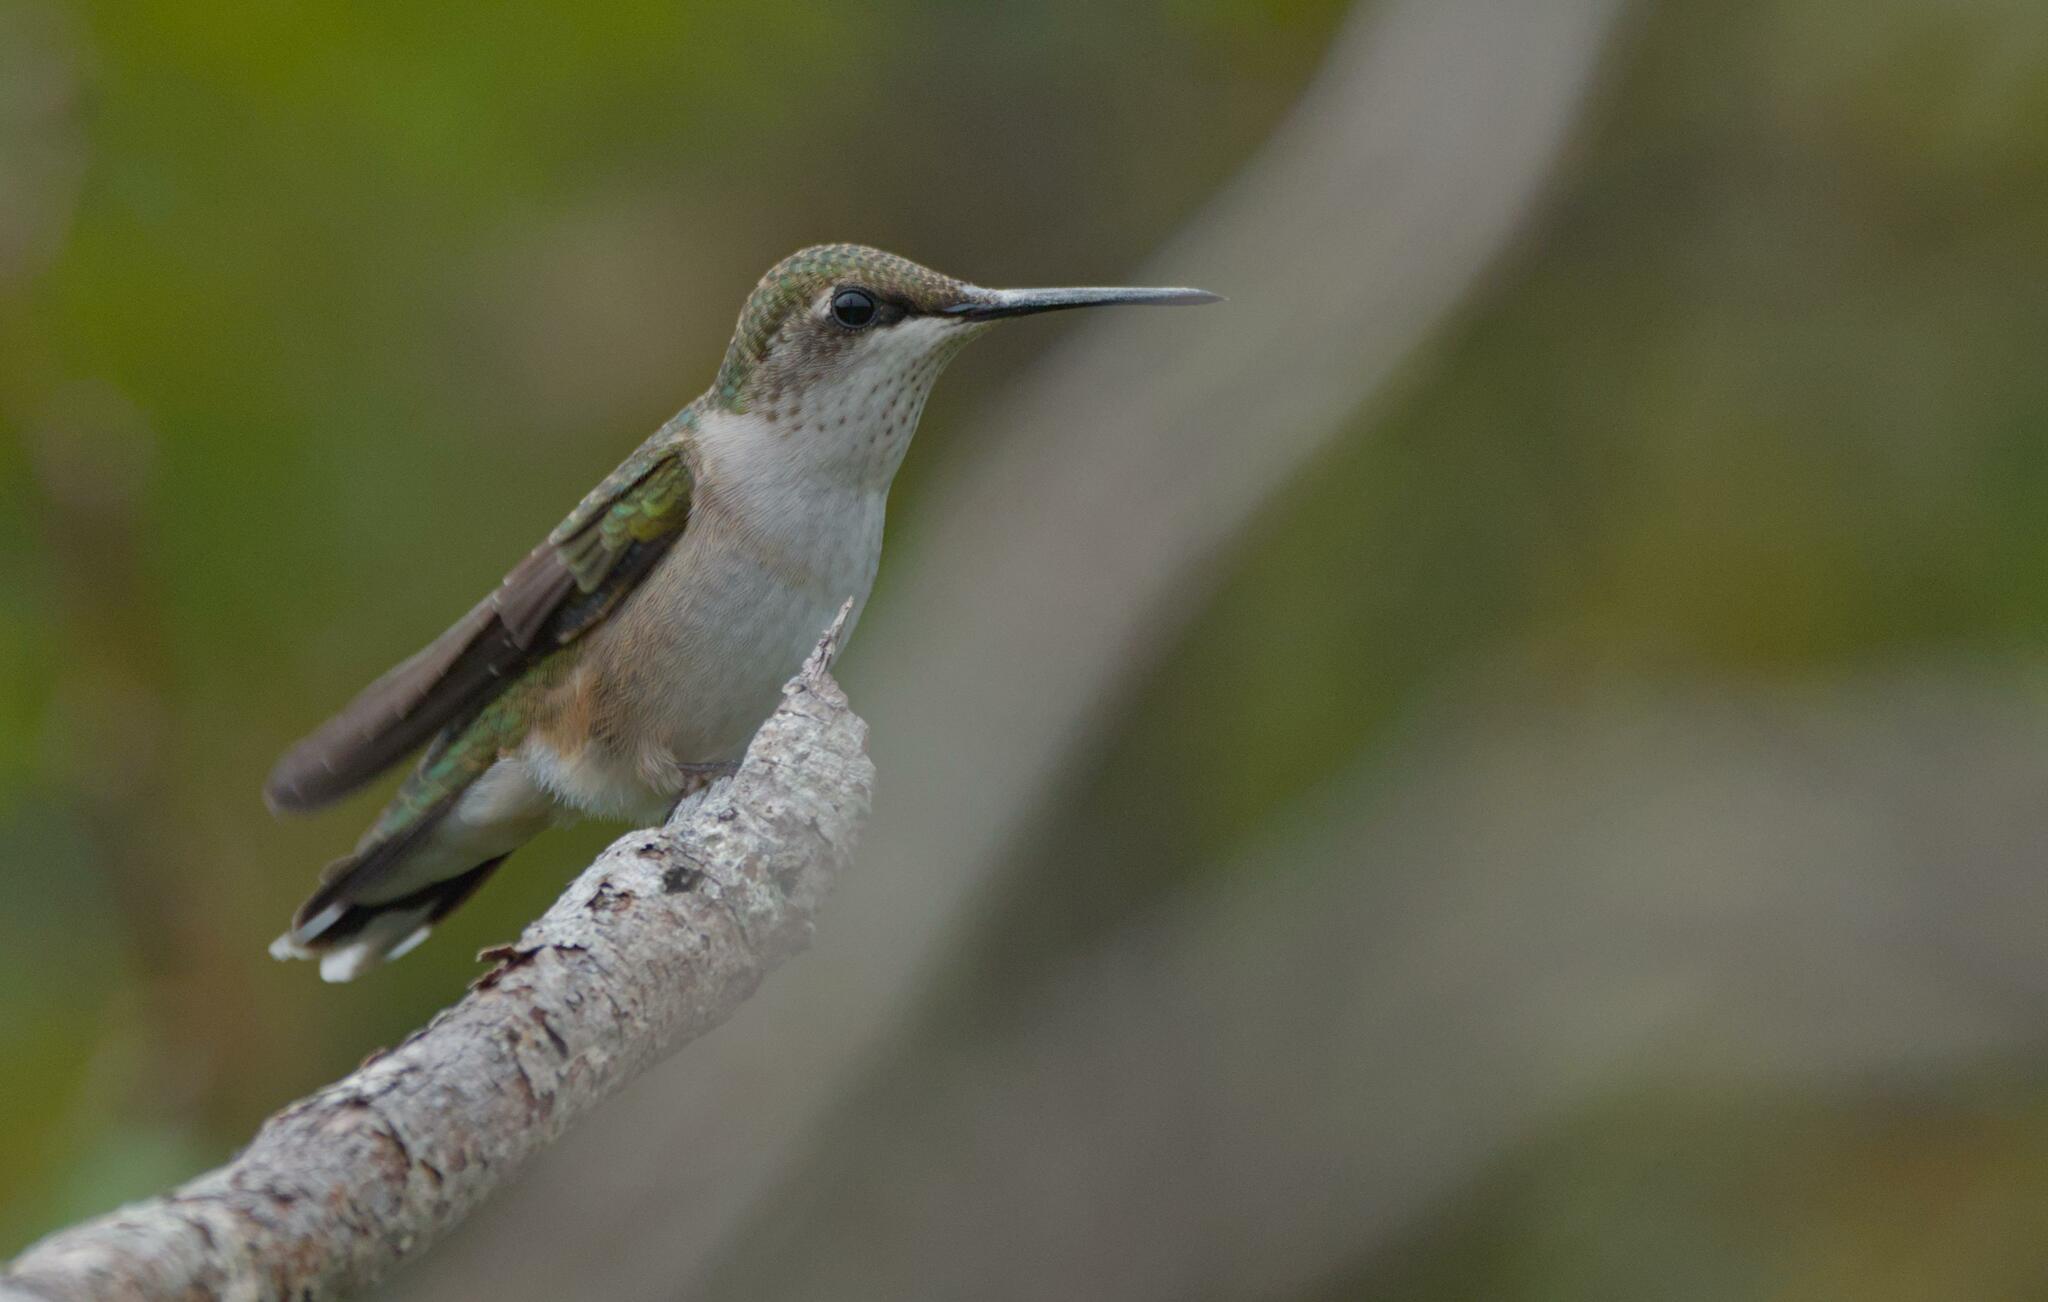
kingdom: Animalia
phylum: Chordata
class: Aves
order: Apodiformes
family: Trochilidae
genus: Archilochus
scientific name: Archilochus colubris
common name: Ruby-throated hummingbird
